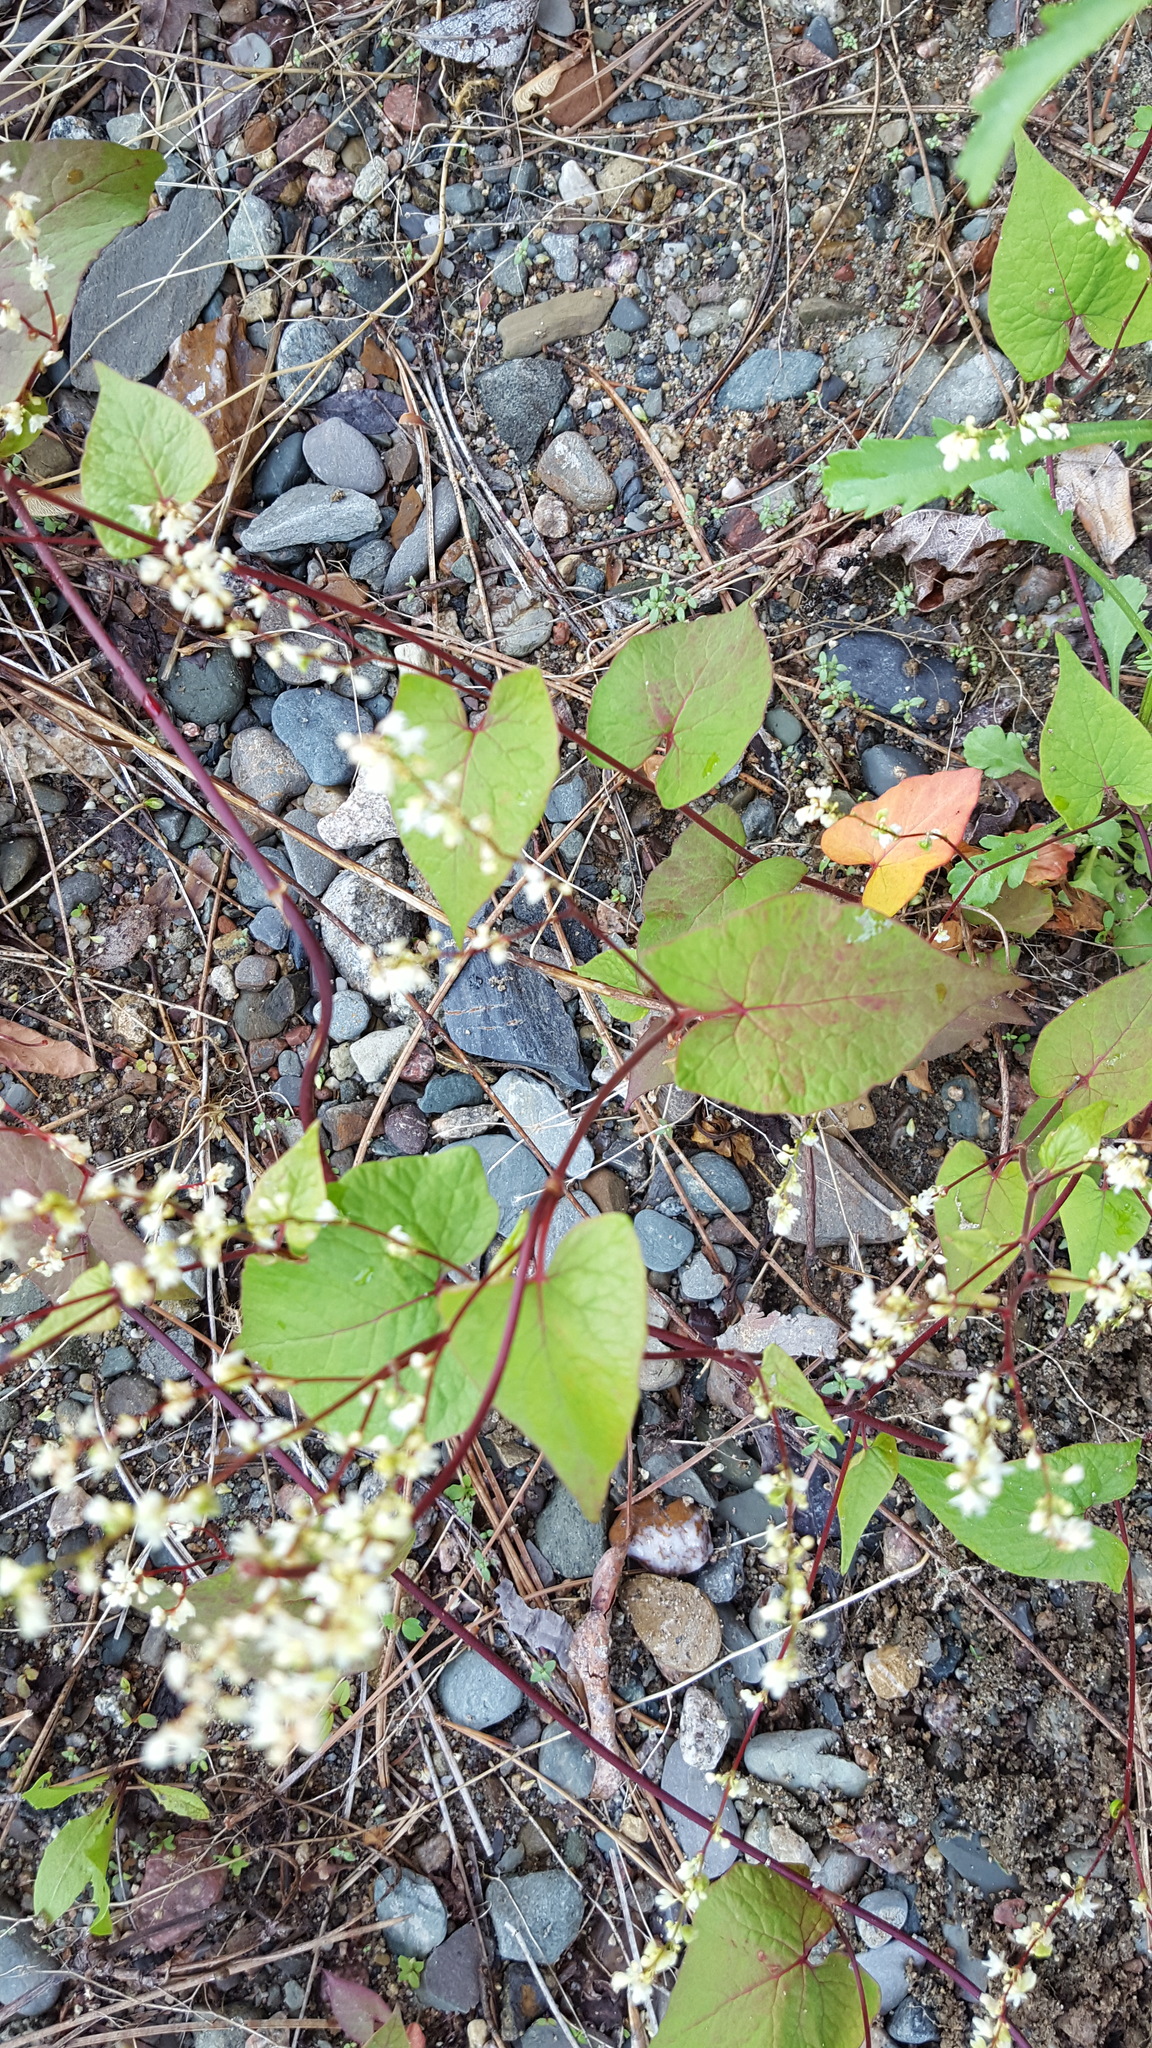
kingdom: Plantae
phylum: Tracheophyta
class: Magnoliopsida
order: Caryophyllales
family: Polygonaceae
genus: Parogonum
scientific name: Parogonum ciliinode
